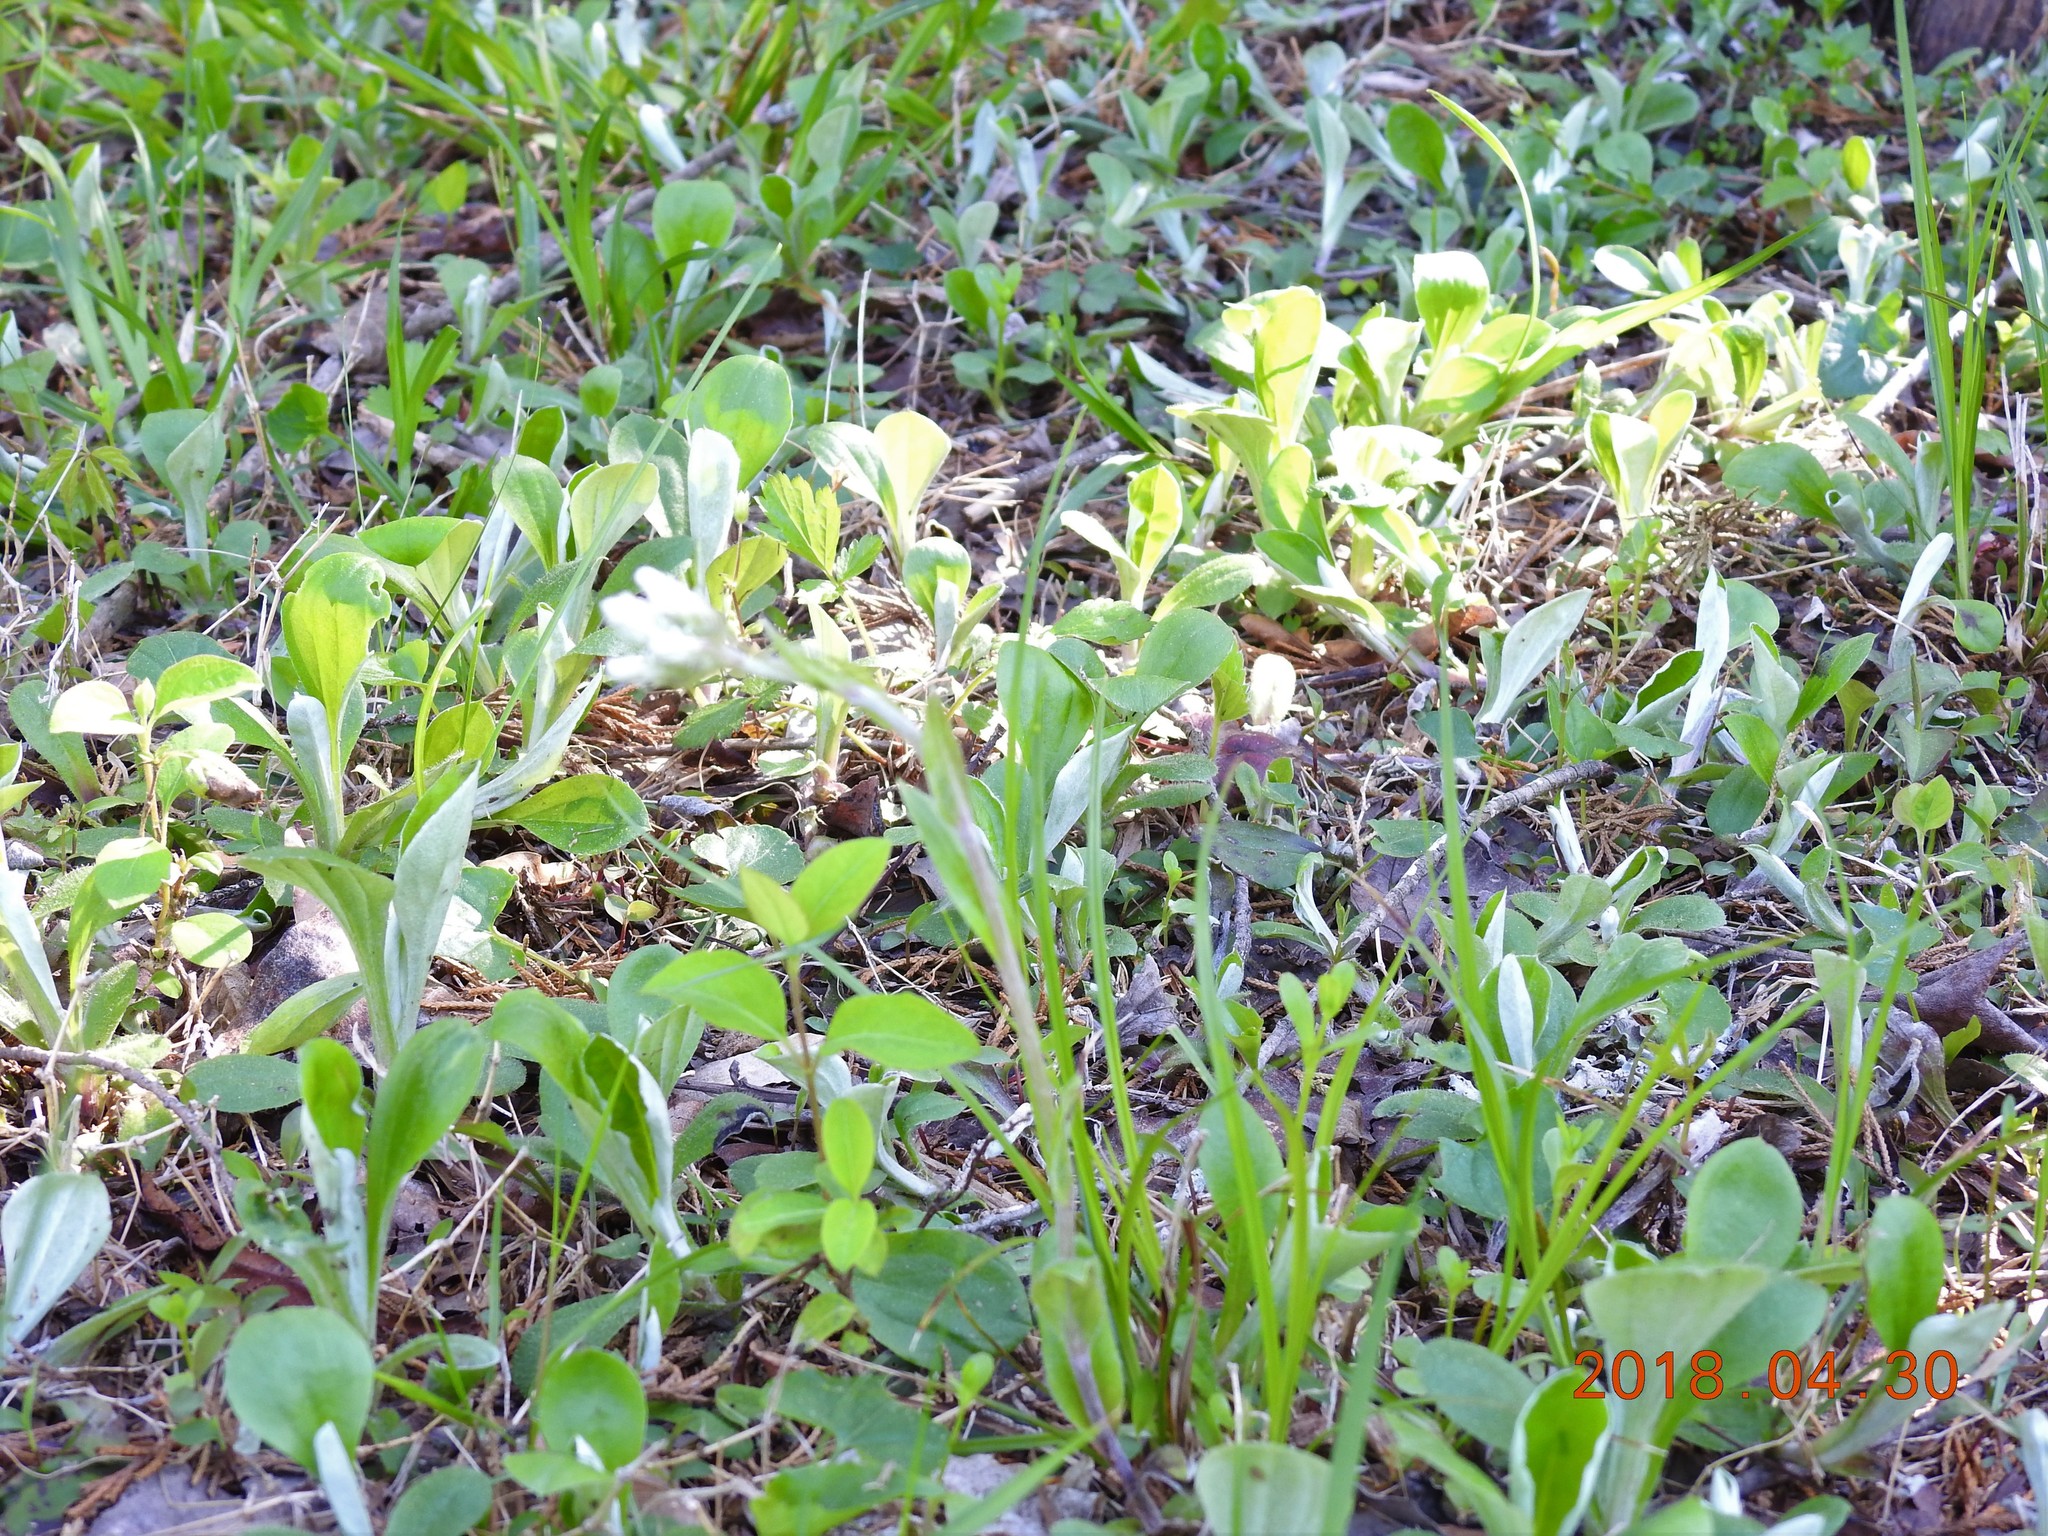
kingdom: Plantae
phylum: Tracheophyta
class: Magnoliopsida
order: Asterales
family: Asteraceae
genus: Antennaria
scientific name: Antennaria plantaginifolia
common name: Plantain-leaved pussytoes
